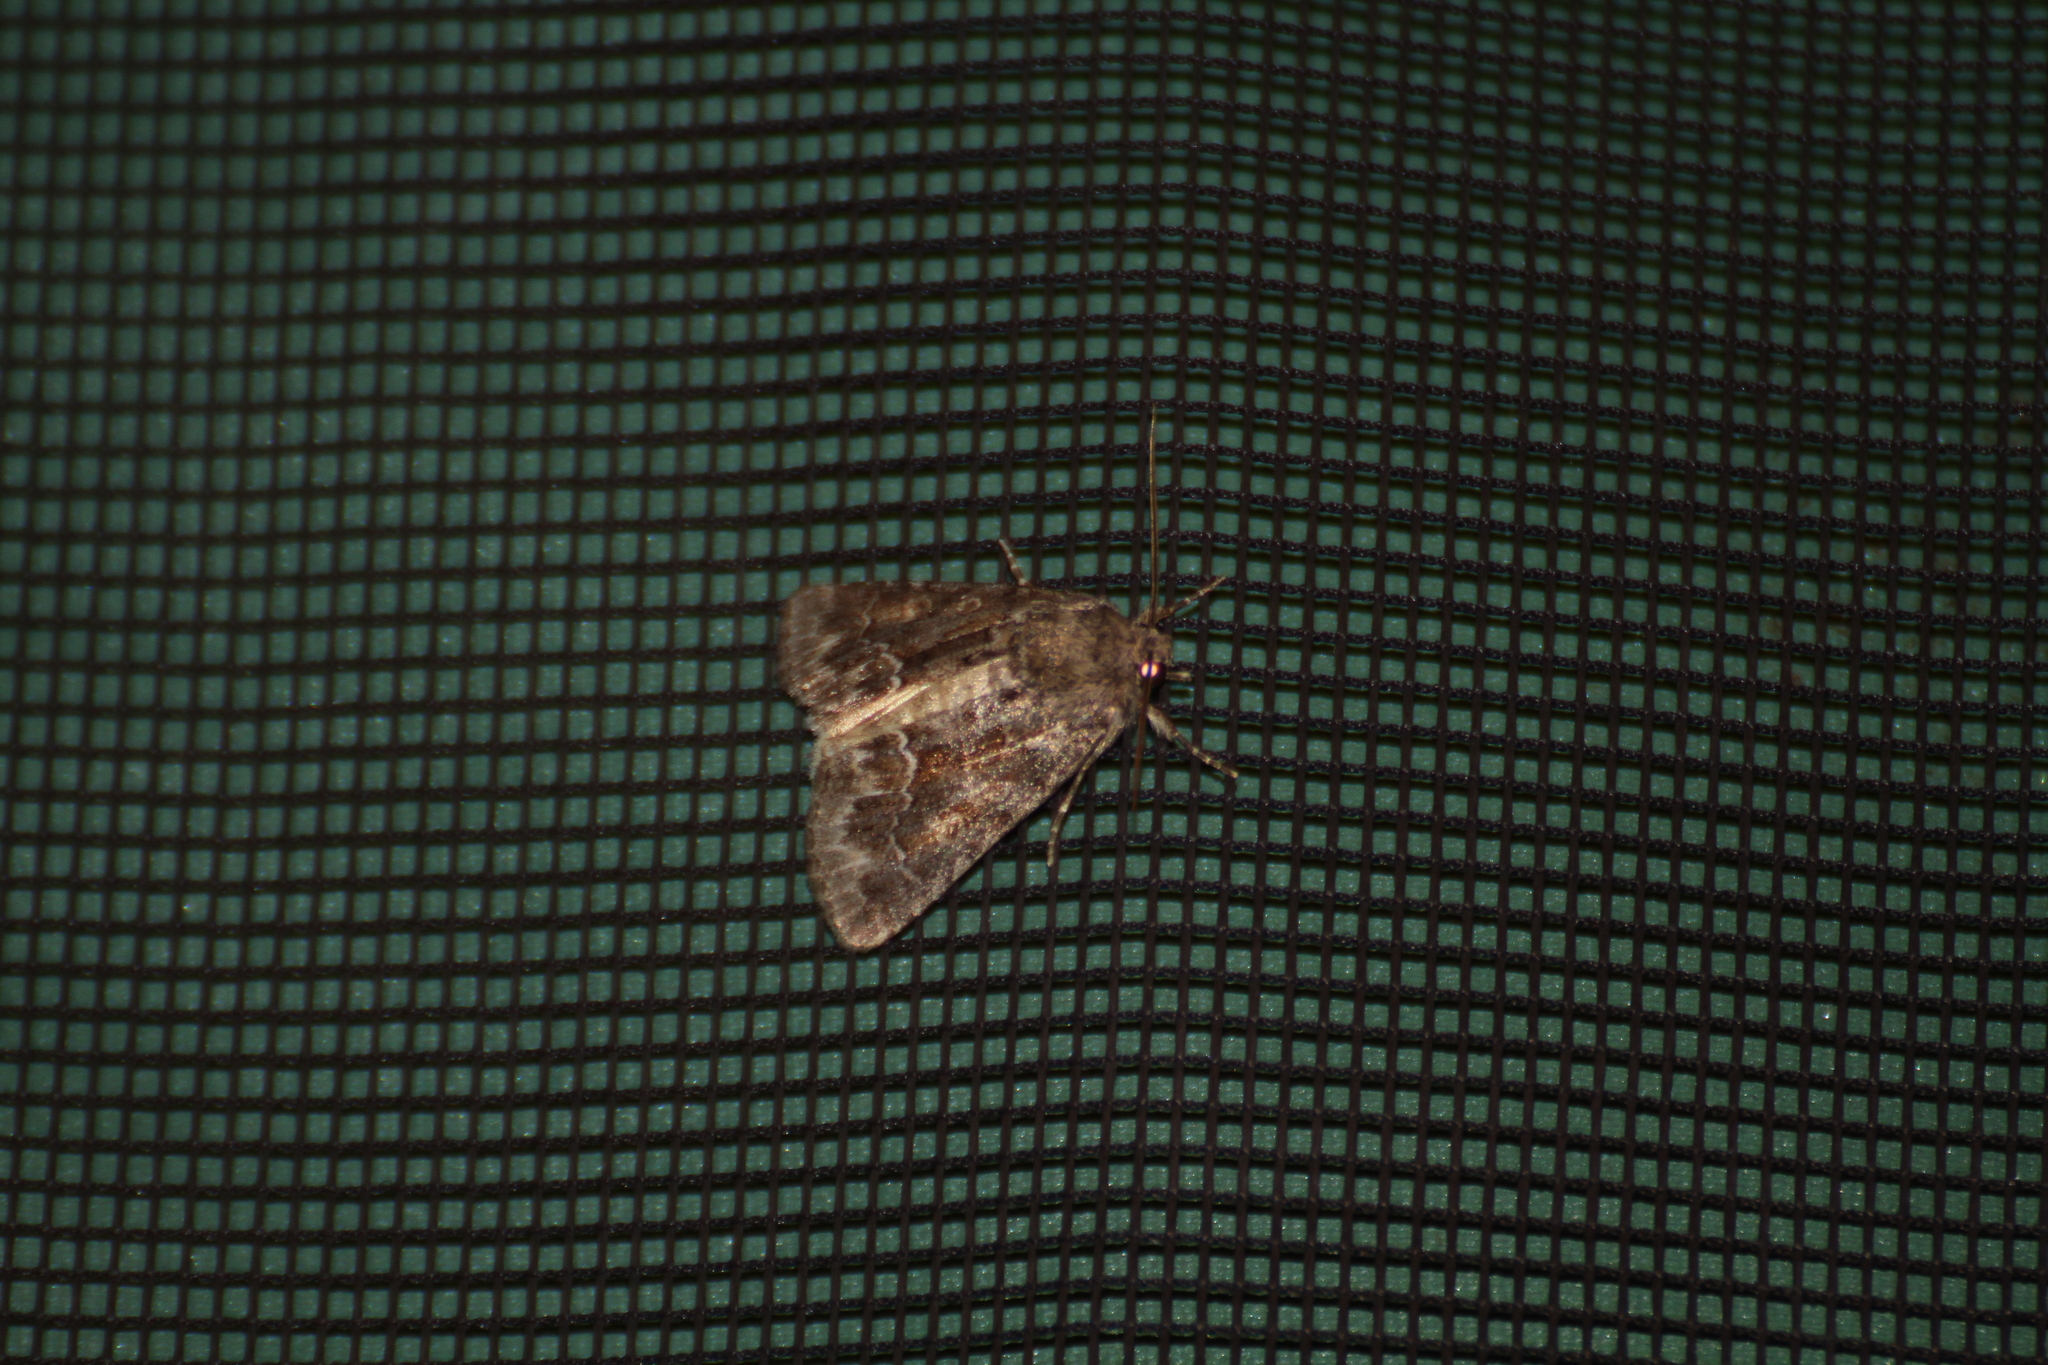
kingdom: Animalia
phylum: Arthropoda
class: Insecta
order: Lepidoptera
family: Noctuidae
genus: Thalpophila
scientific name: Thalpophila matura
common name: Straw underwing
